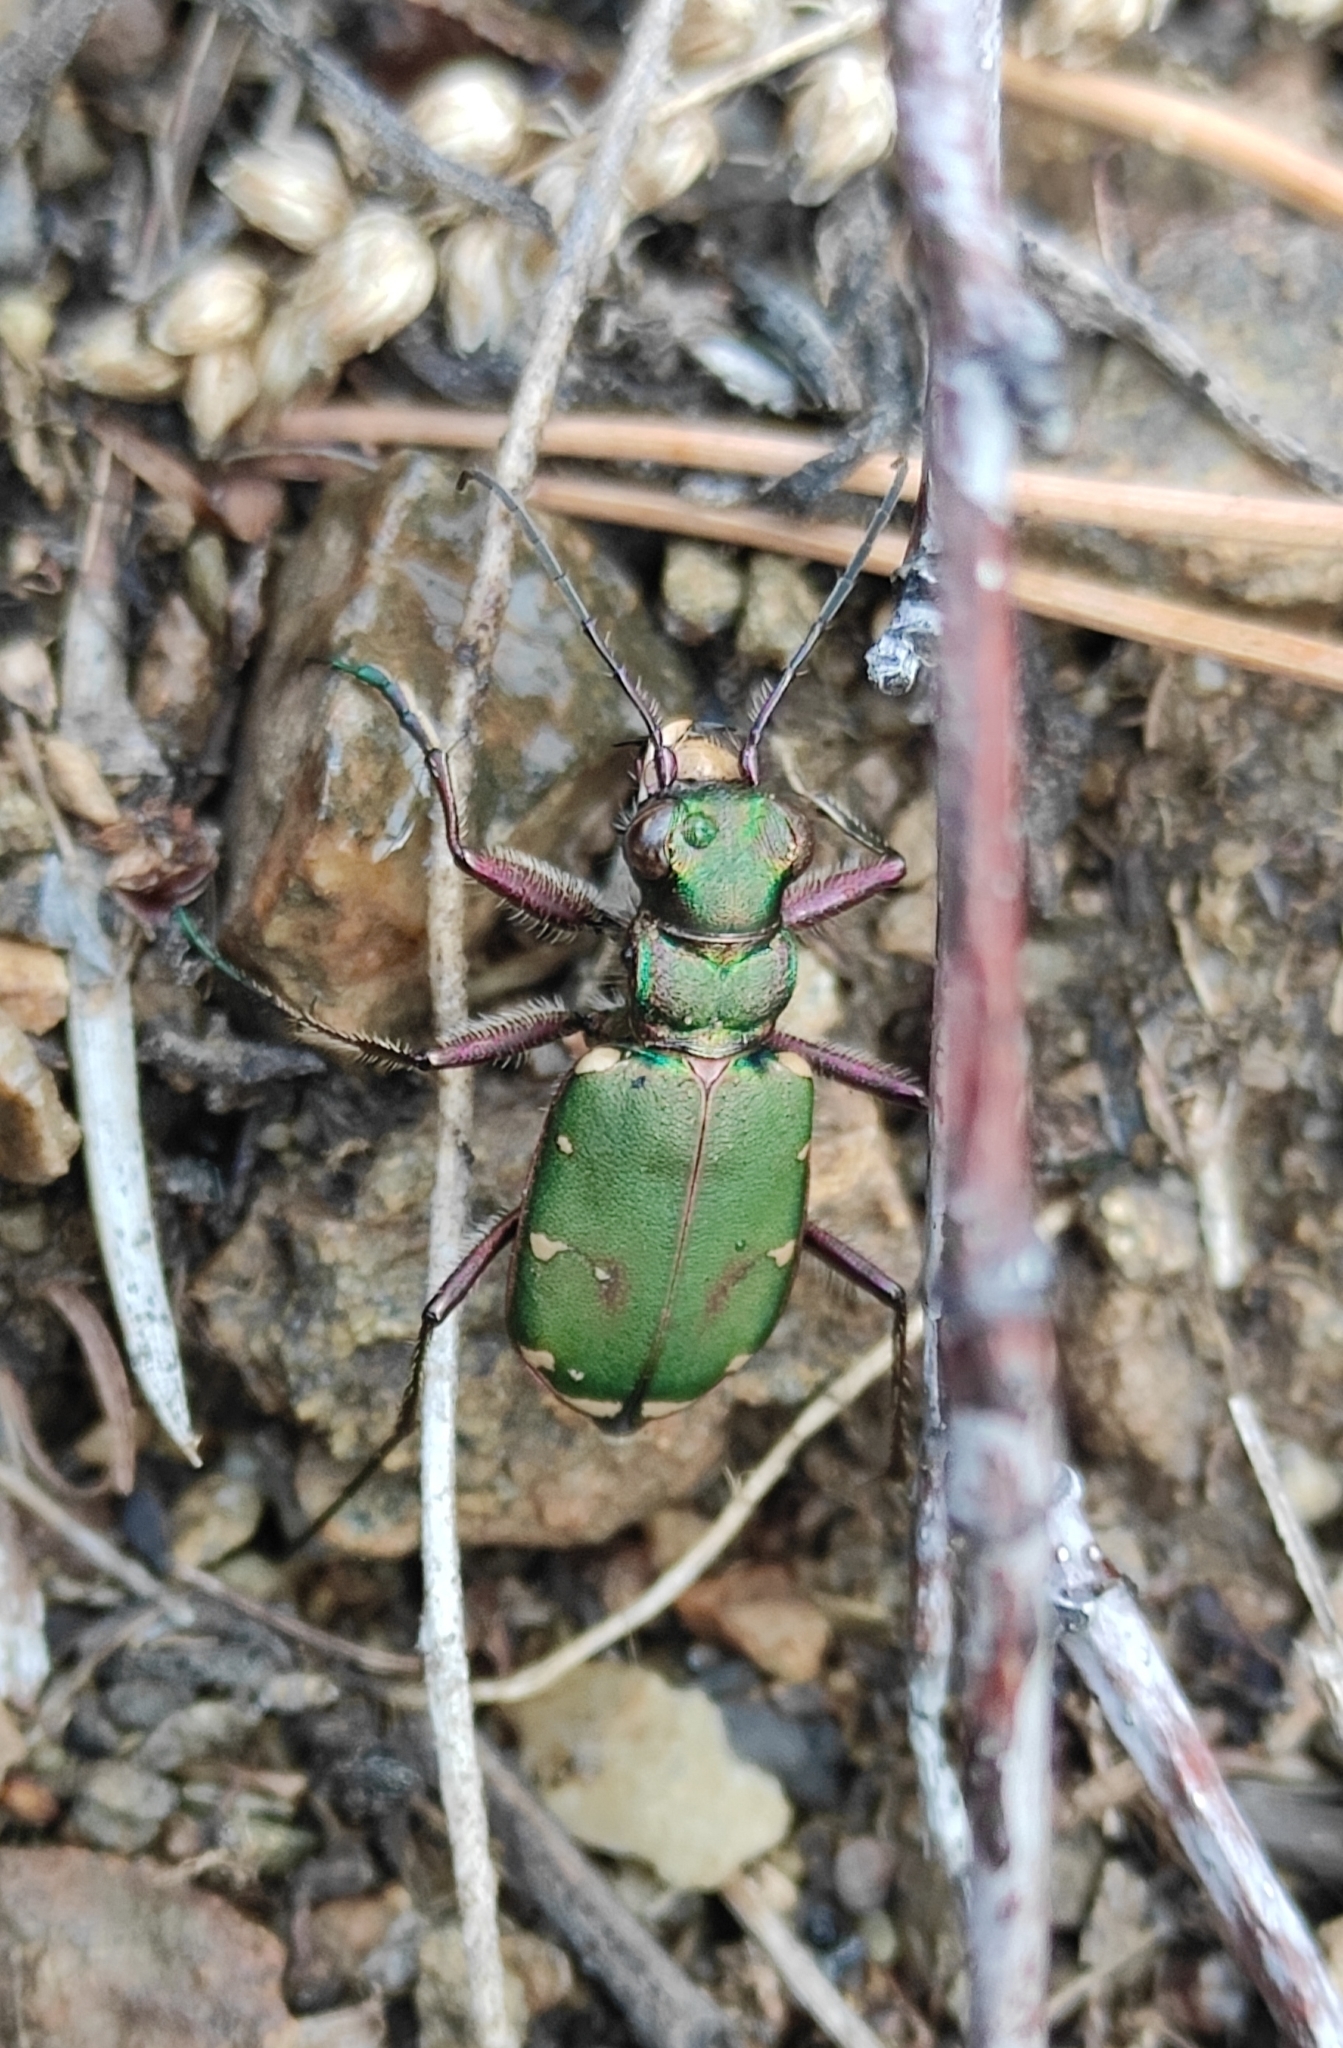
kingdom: Animalia
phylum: Arthropoda
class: Insecta
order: Coleoptera
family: Carabidae
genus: Cicindela
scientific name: Cicindela campestris
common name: Common tiger beetle
